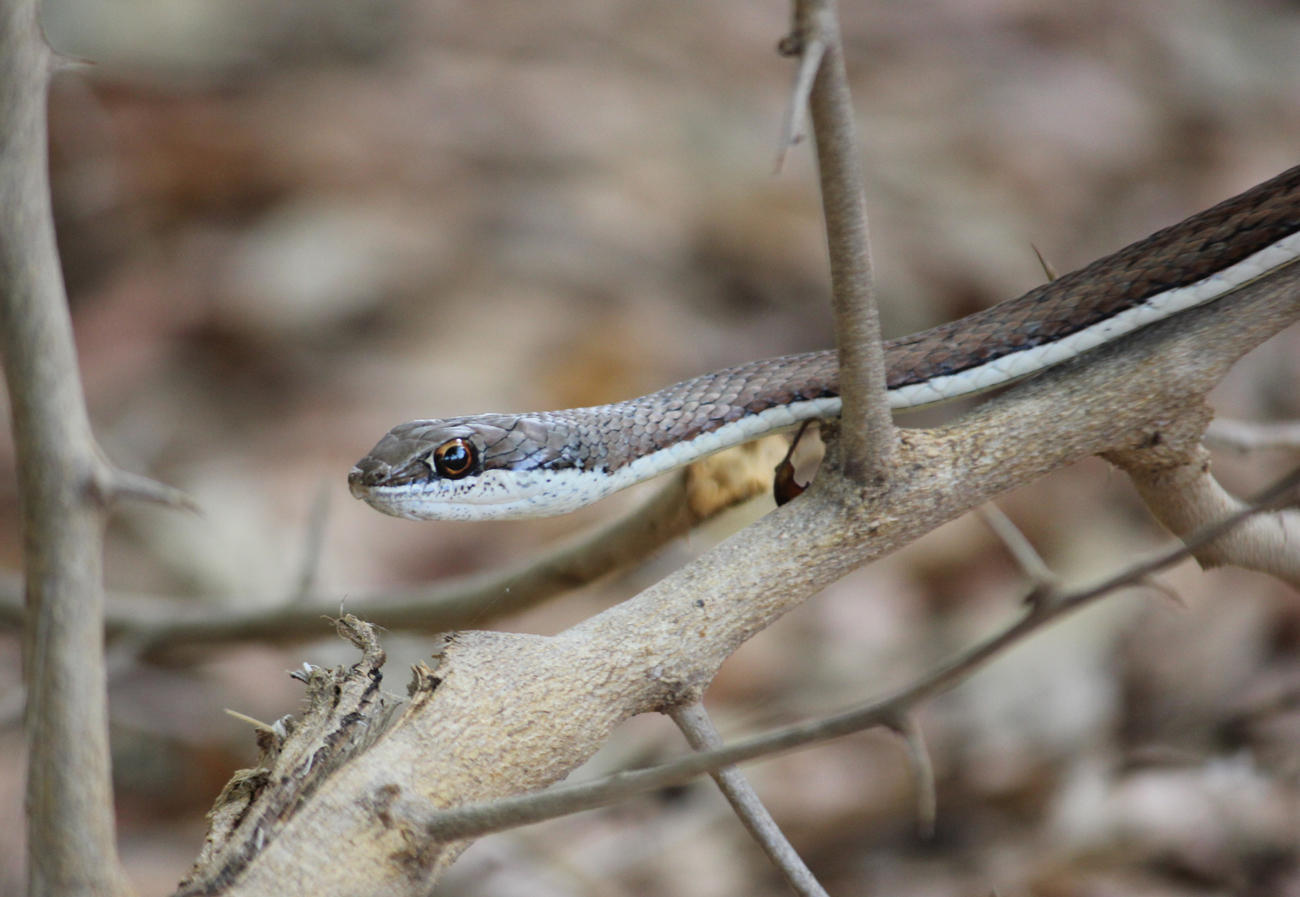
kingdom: Animalia
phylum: Chordata
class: Squamata
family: Psammophiidae
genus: Psammophis
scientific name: Psammophis subtaeniatus
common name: Stripe-bellied sand snake
